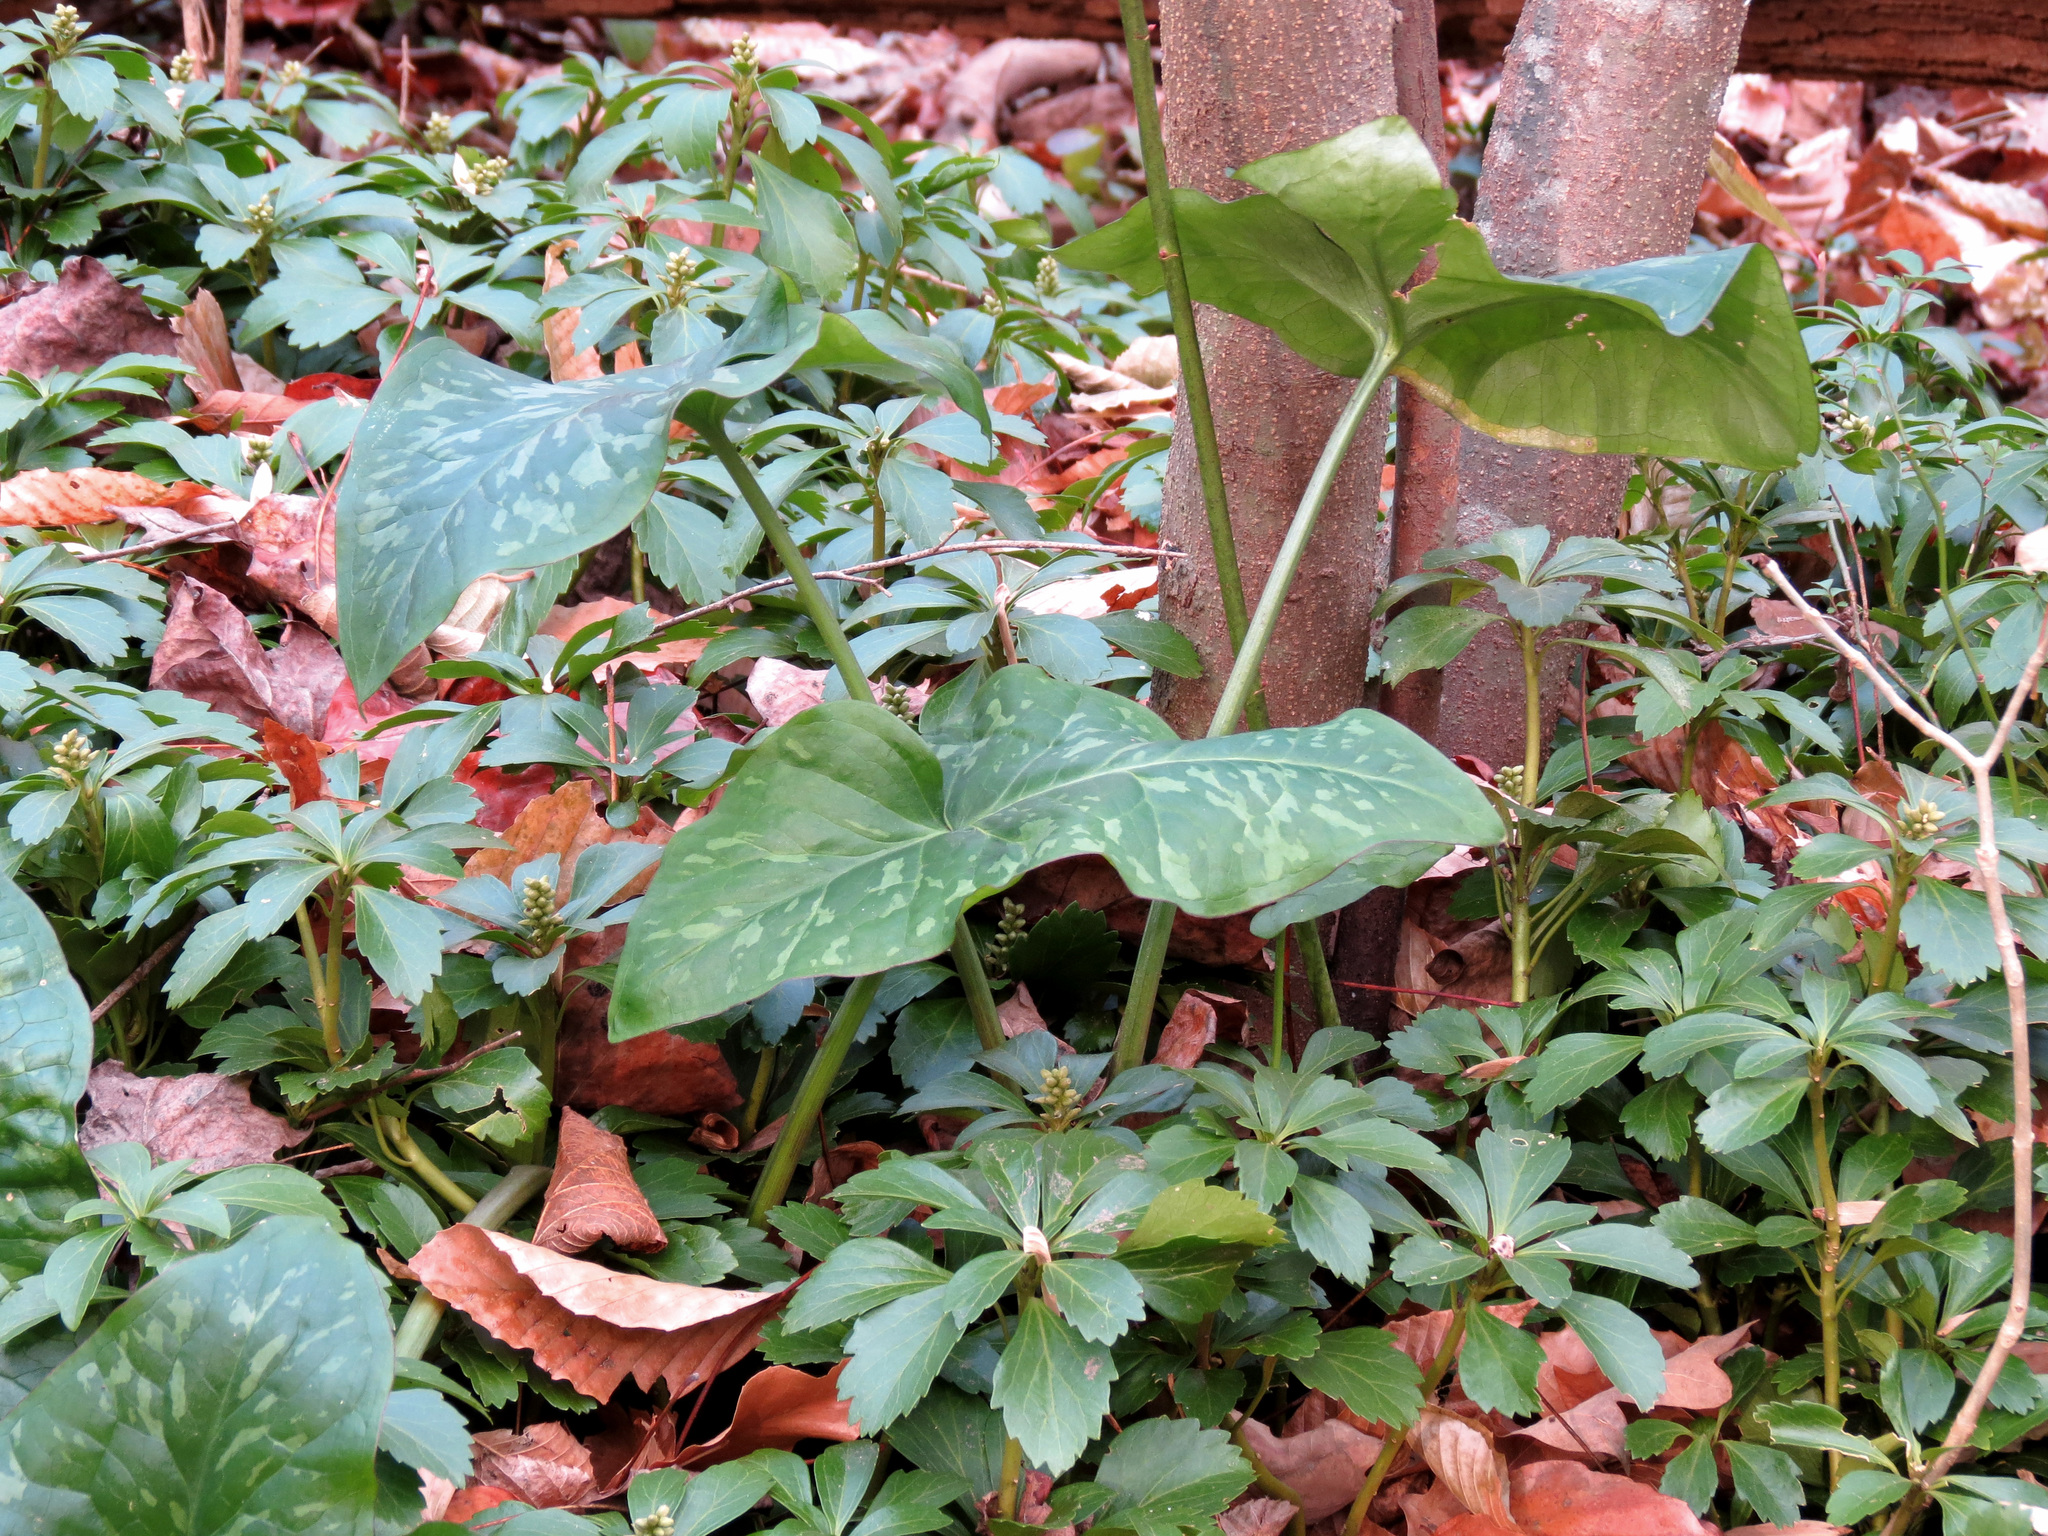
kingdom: Plantae
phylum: Tracheophyta
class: Liliopsida
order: Alismatales
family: Araceae
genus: Arum
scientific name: Arum italicum
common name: Italian lords-and-ladies
